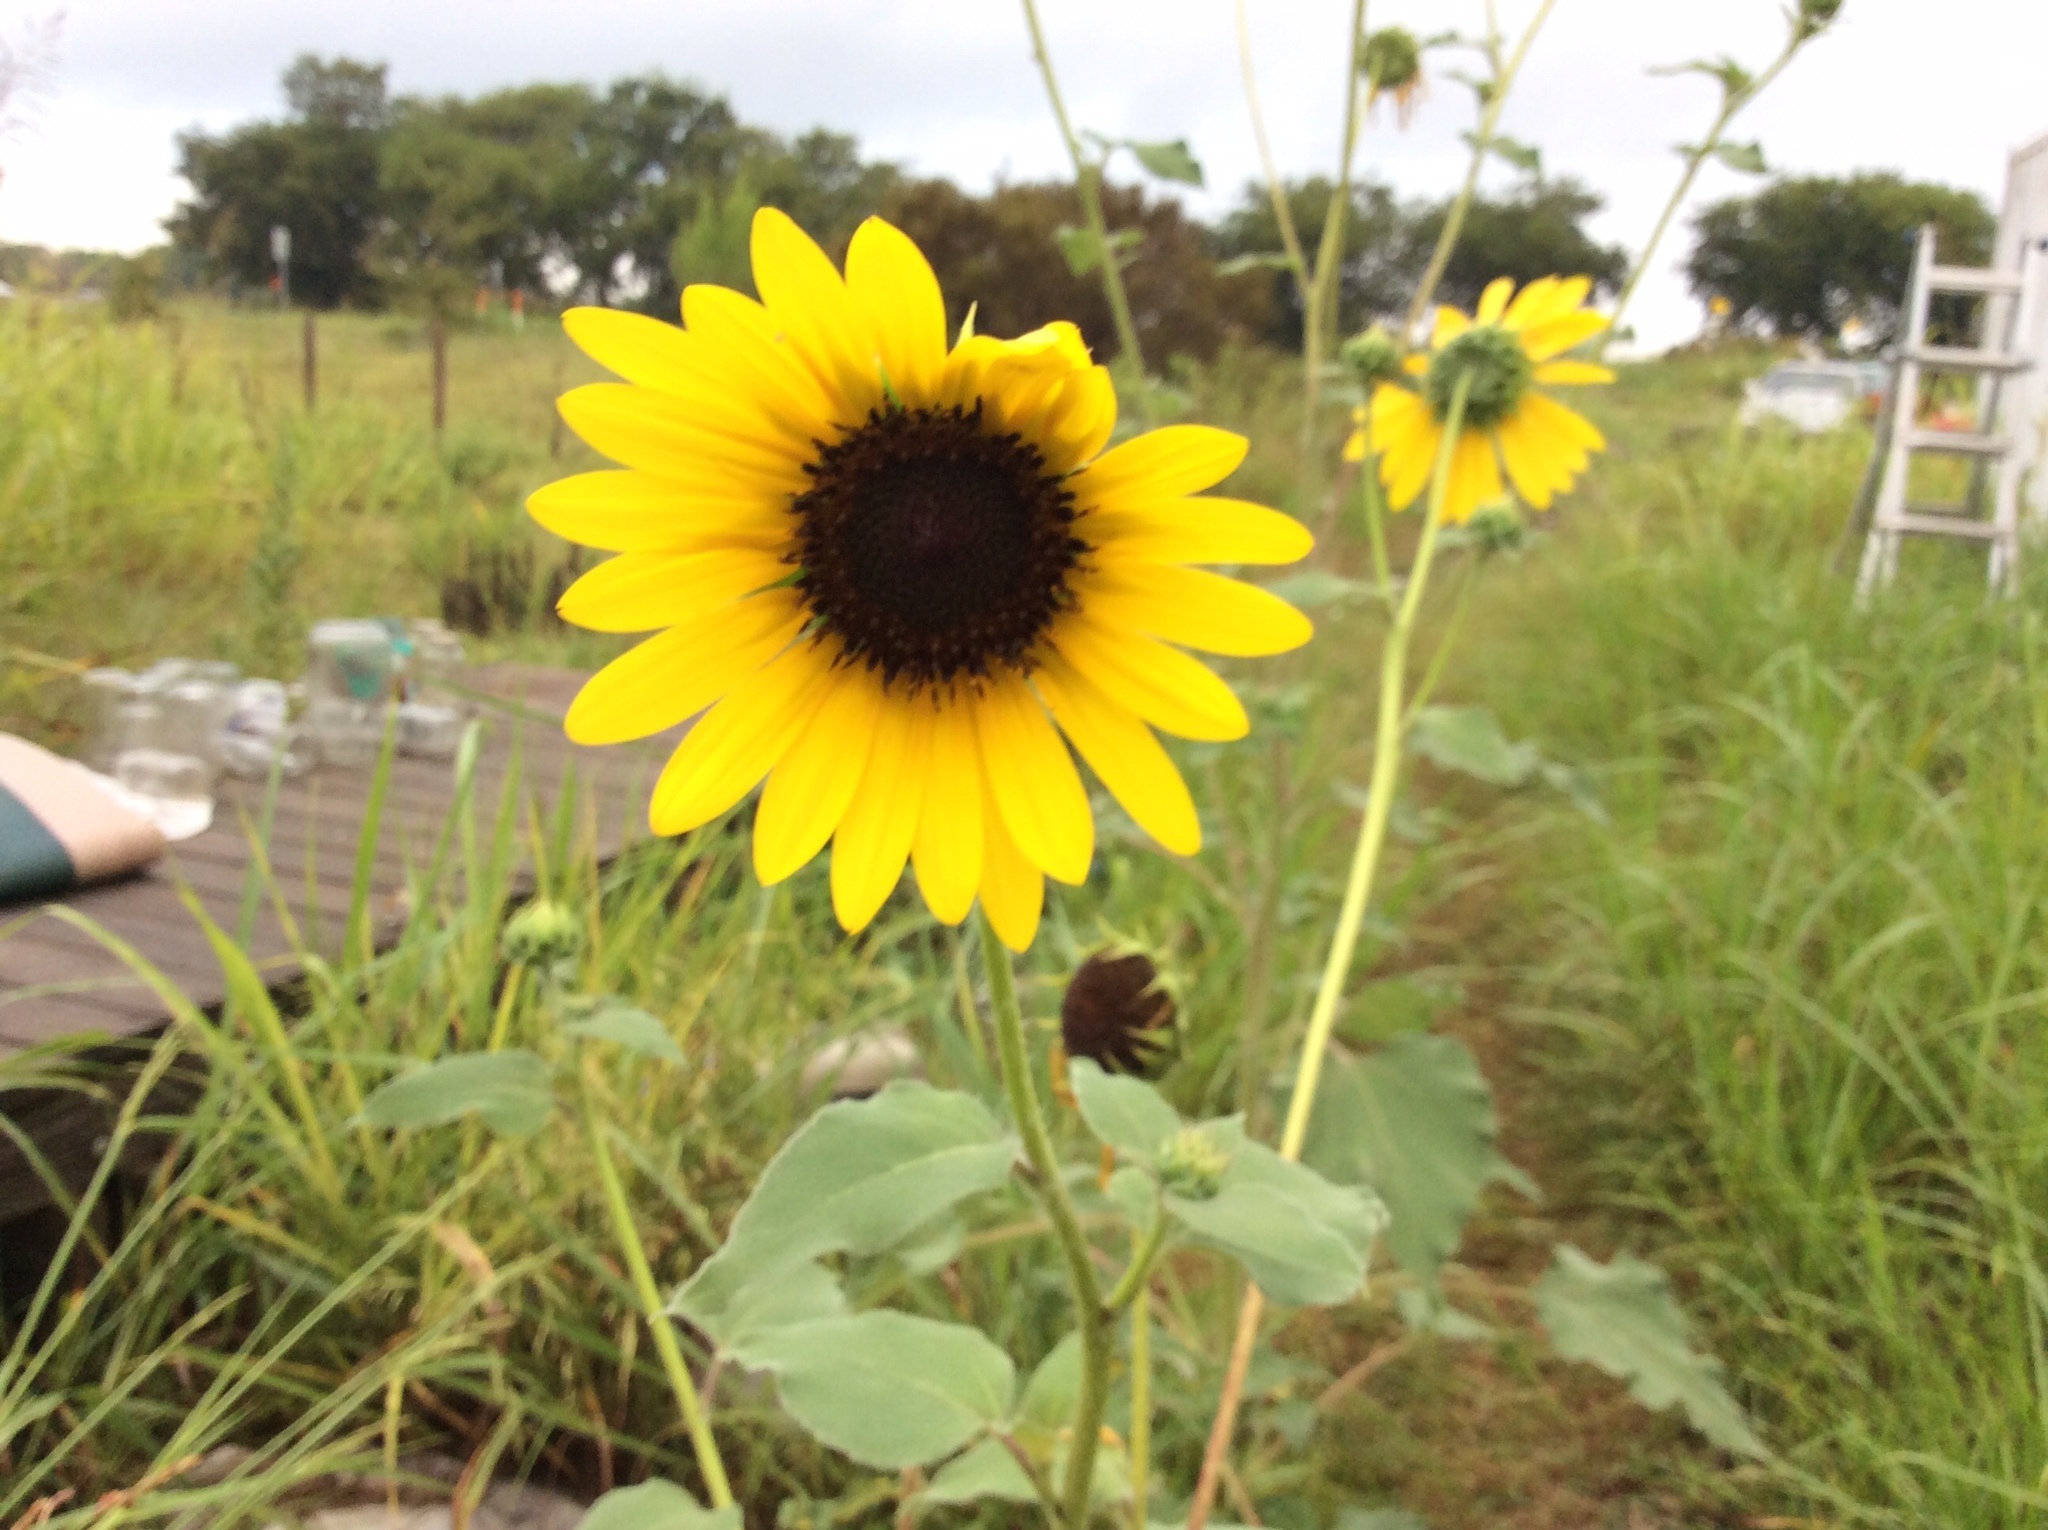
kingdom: Plantae
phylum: Tracheophyta
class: Magnoliopsida
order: Asterales
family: Asteraceae
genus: Helianthus
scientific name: Helianthus annuus
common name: Sunflower
